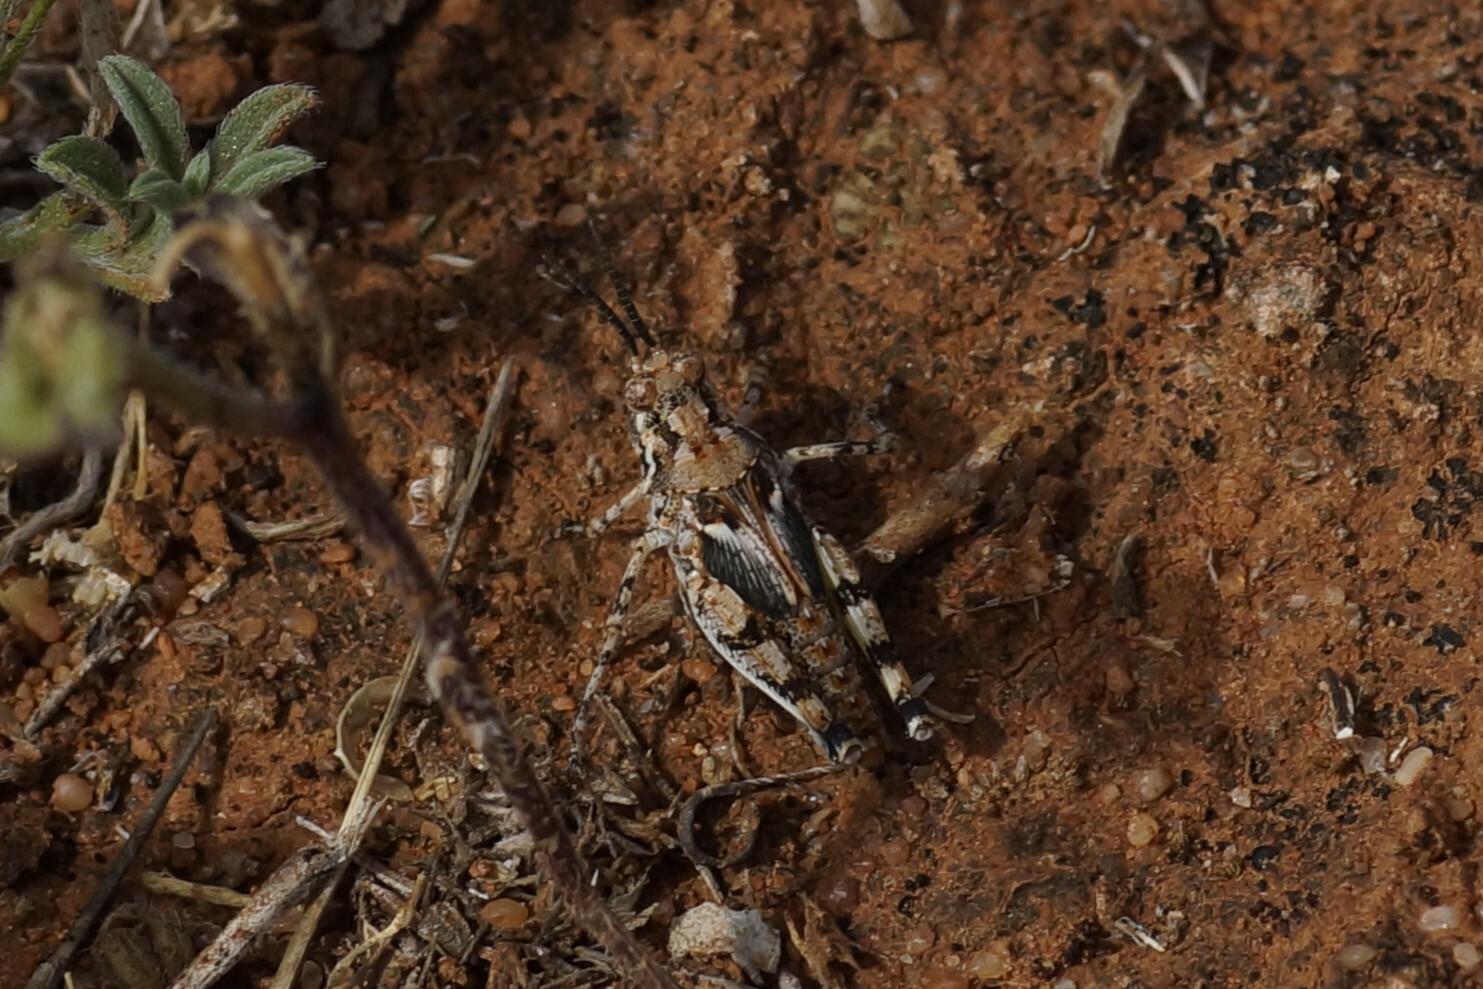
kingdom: Animalia
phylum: Arthropoda
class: Insecta
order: Orthoptera
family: Acrididae
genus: Urnisa
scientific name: Urnisa guttulosa
